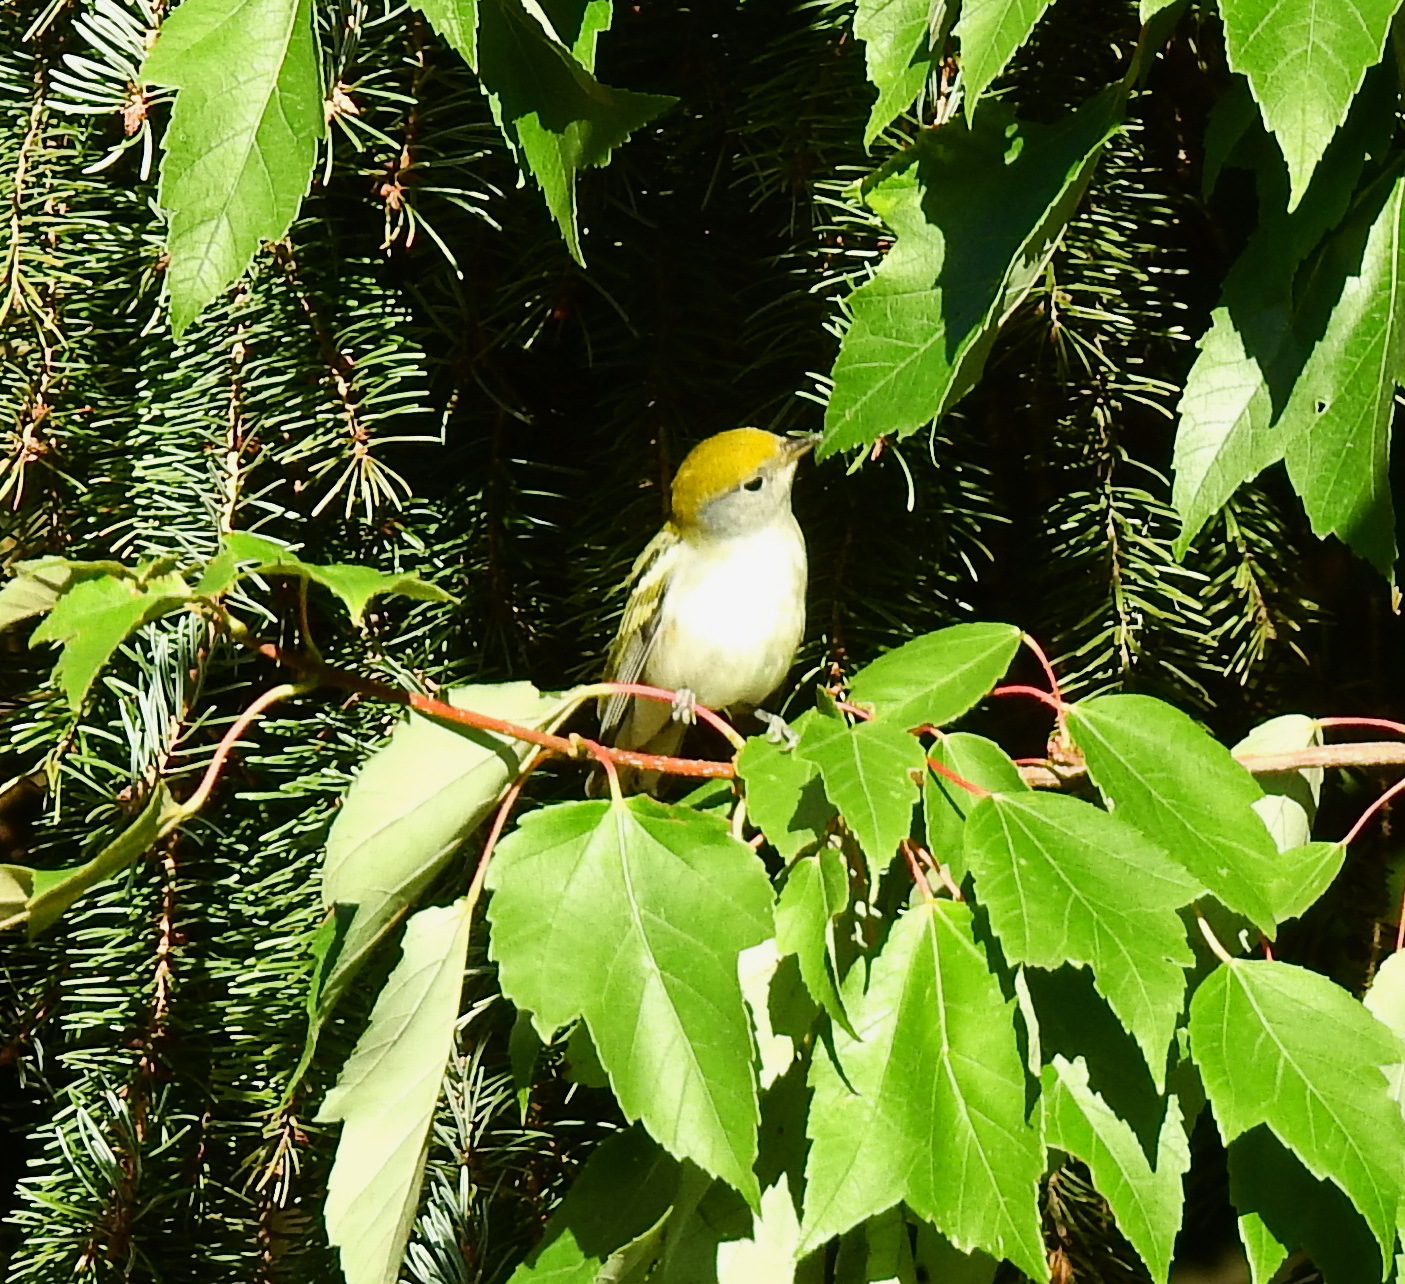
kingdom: Animalia
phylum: Chordata
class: Aves
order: Passeriformes
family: Parulidae
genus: Setophaga
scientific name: Setophaga pensylvanica
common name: Chestnut-sided warbler
